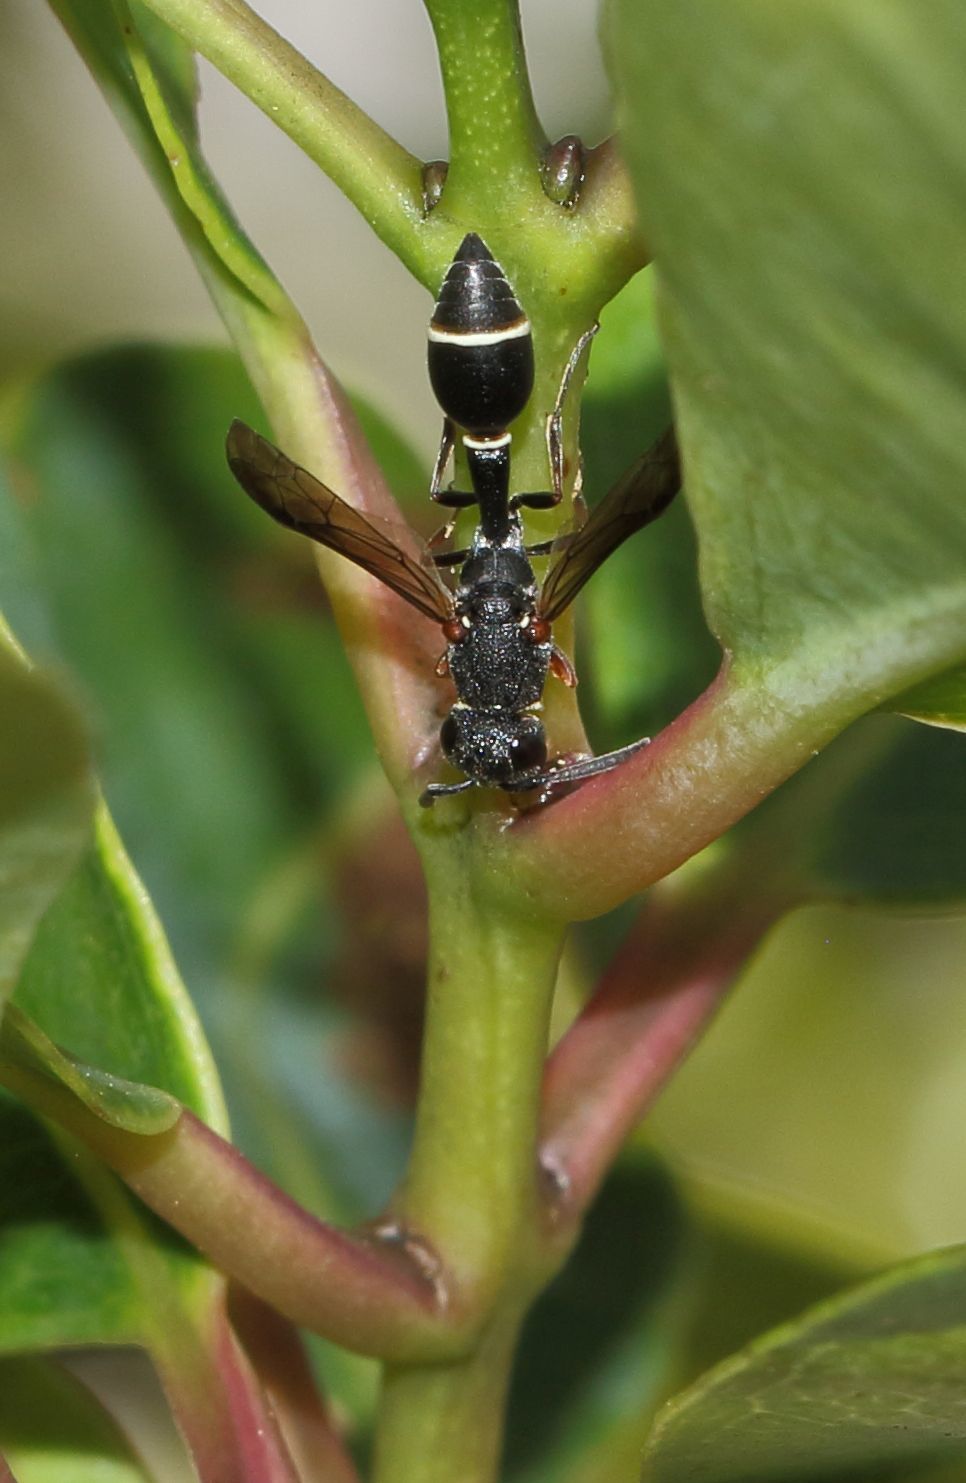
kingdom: Animalia
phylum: Arthropoda
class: Insecta
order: Hymenoptera
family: Eumenidae
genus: Micreumenes
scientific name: Micreumenes
